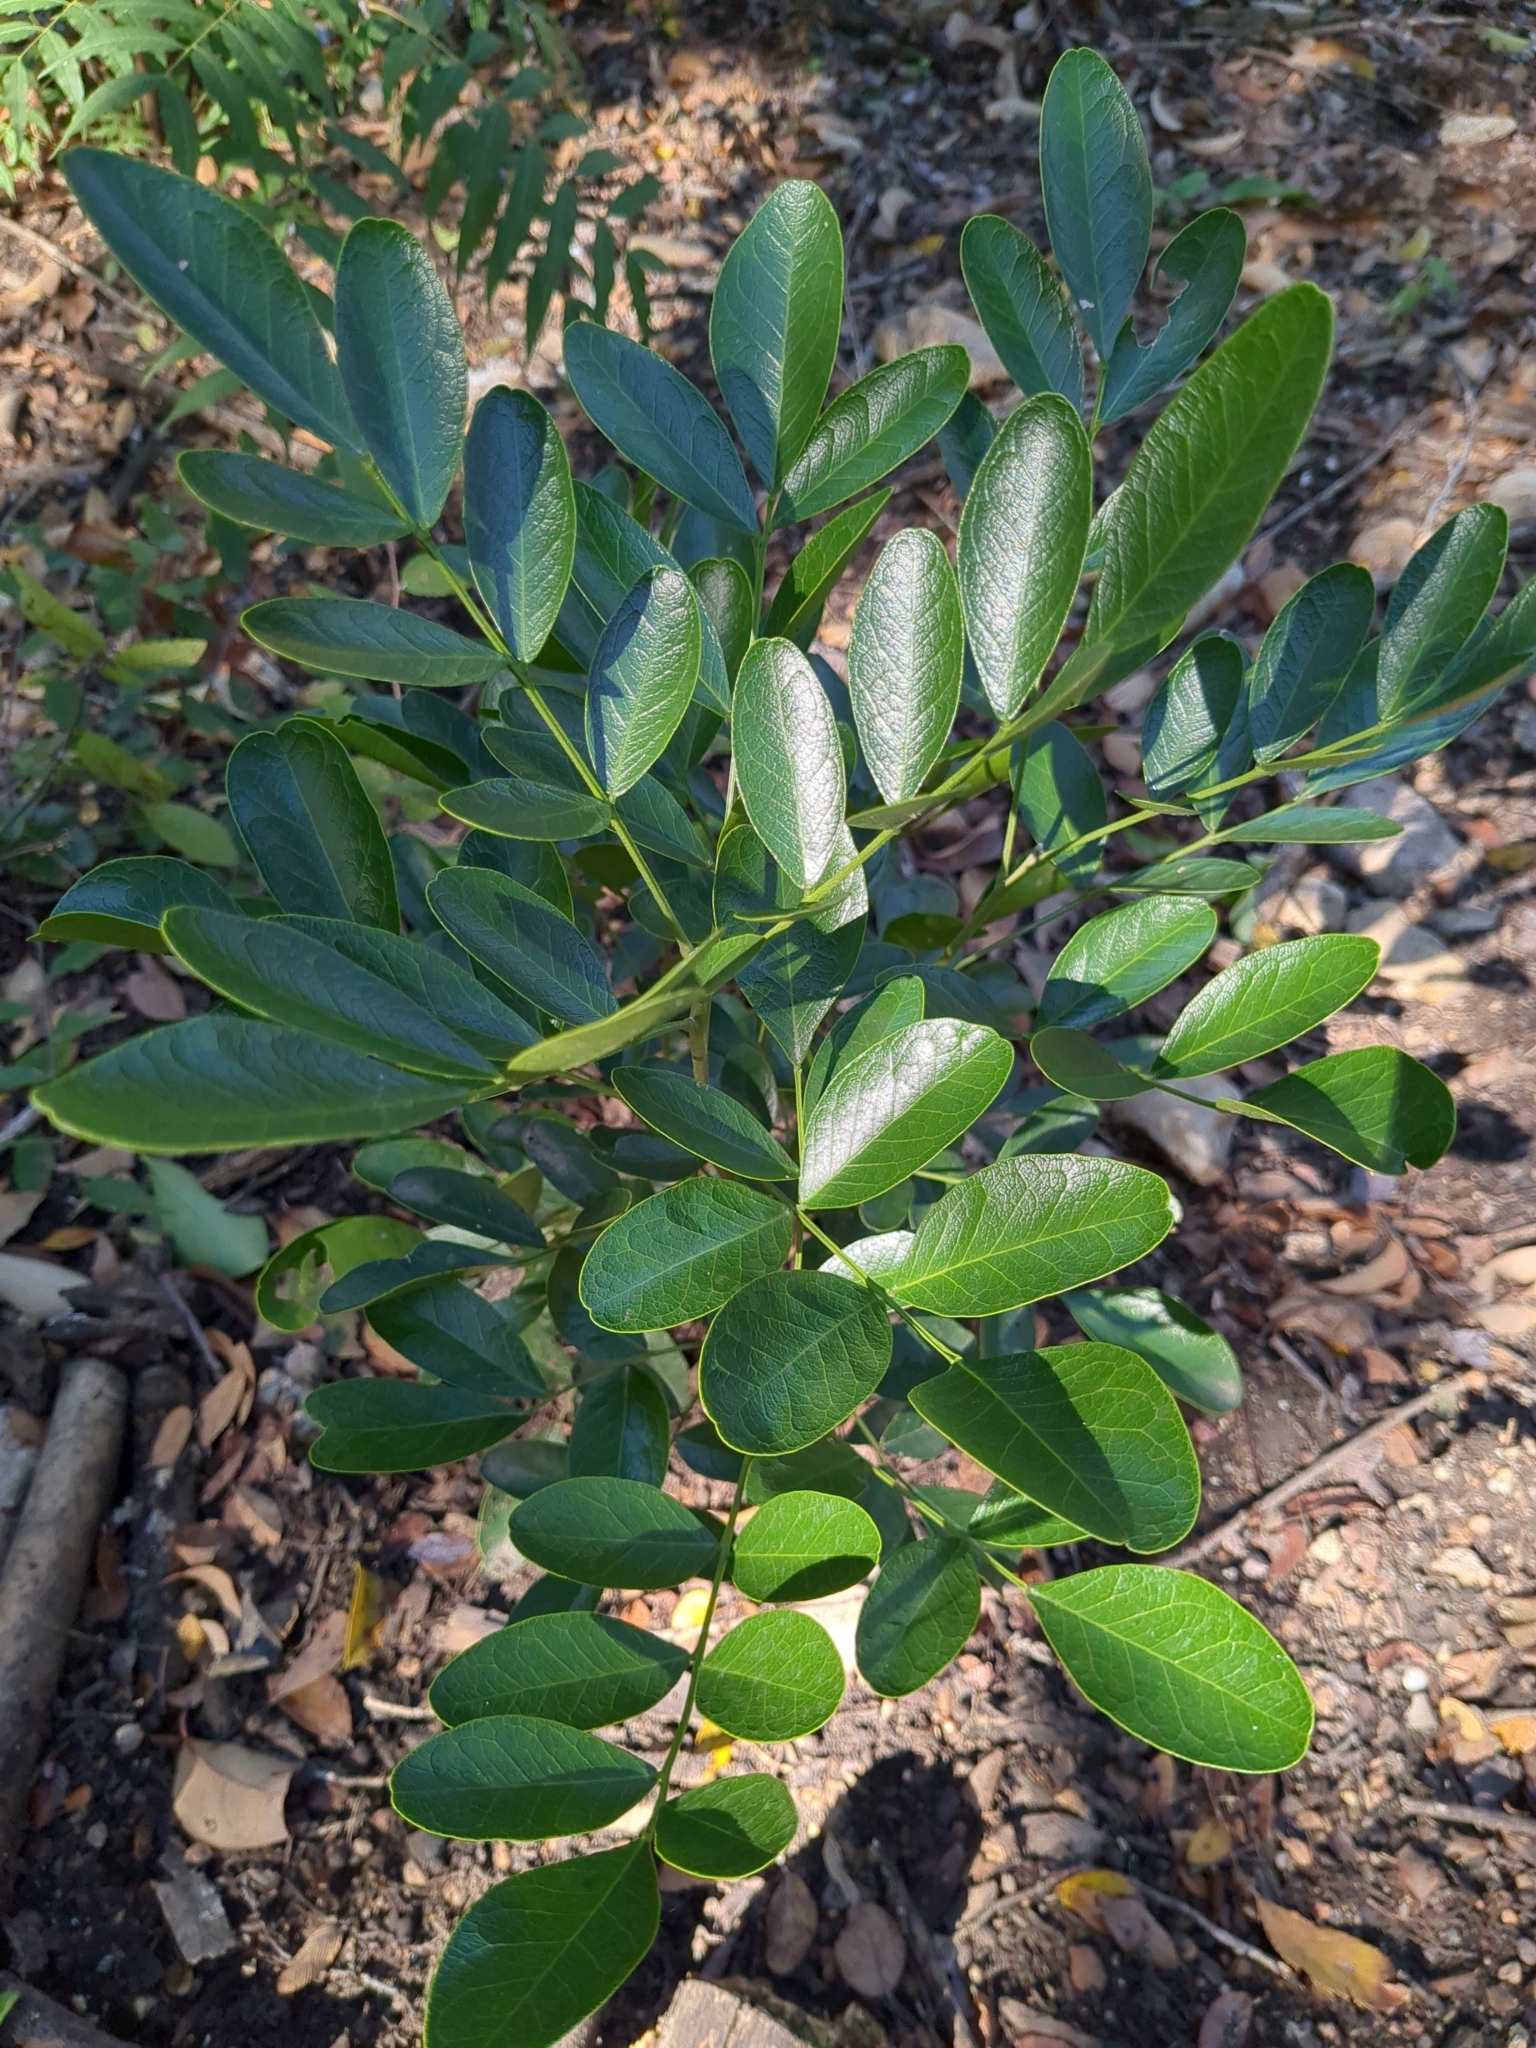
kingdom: Plantae
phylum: Tracheophyta
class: Magnoliopsida
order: Fabales
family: Fabaceae
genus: Dermatophyllum
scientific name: Dermatophyllum secundiflorum
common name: Texas-mountain-laurel
